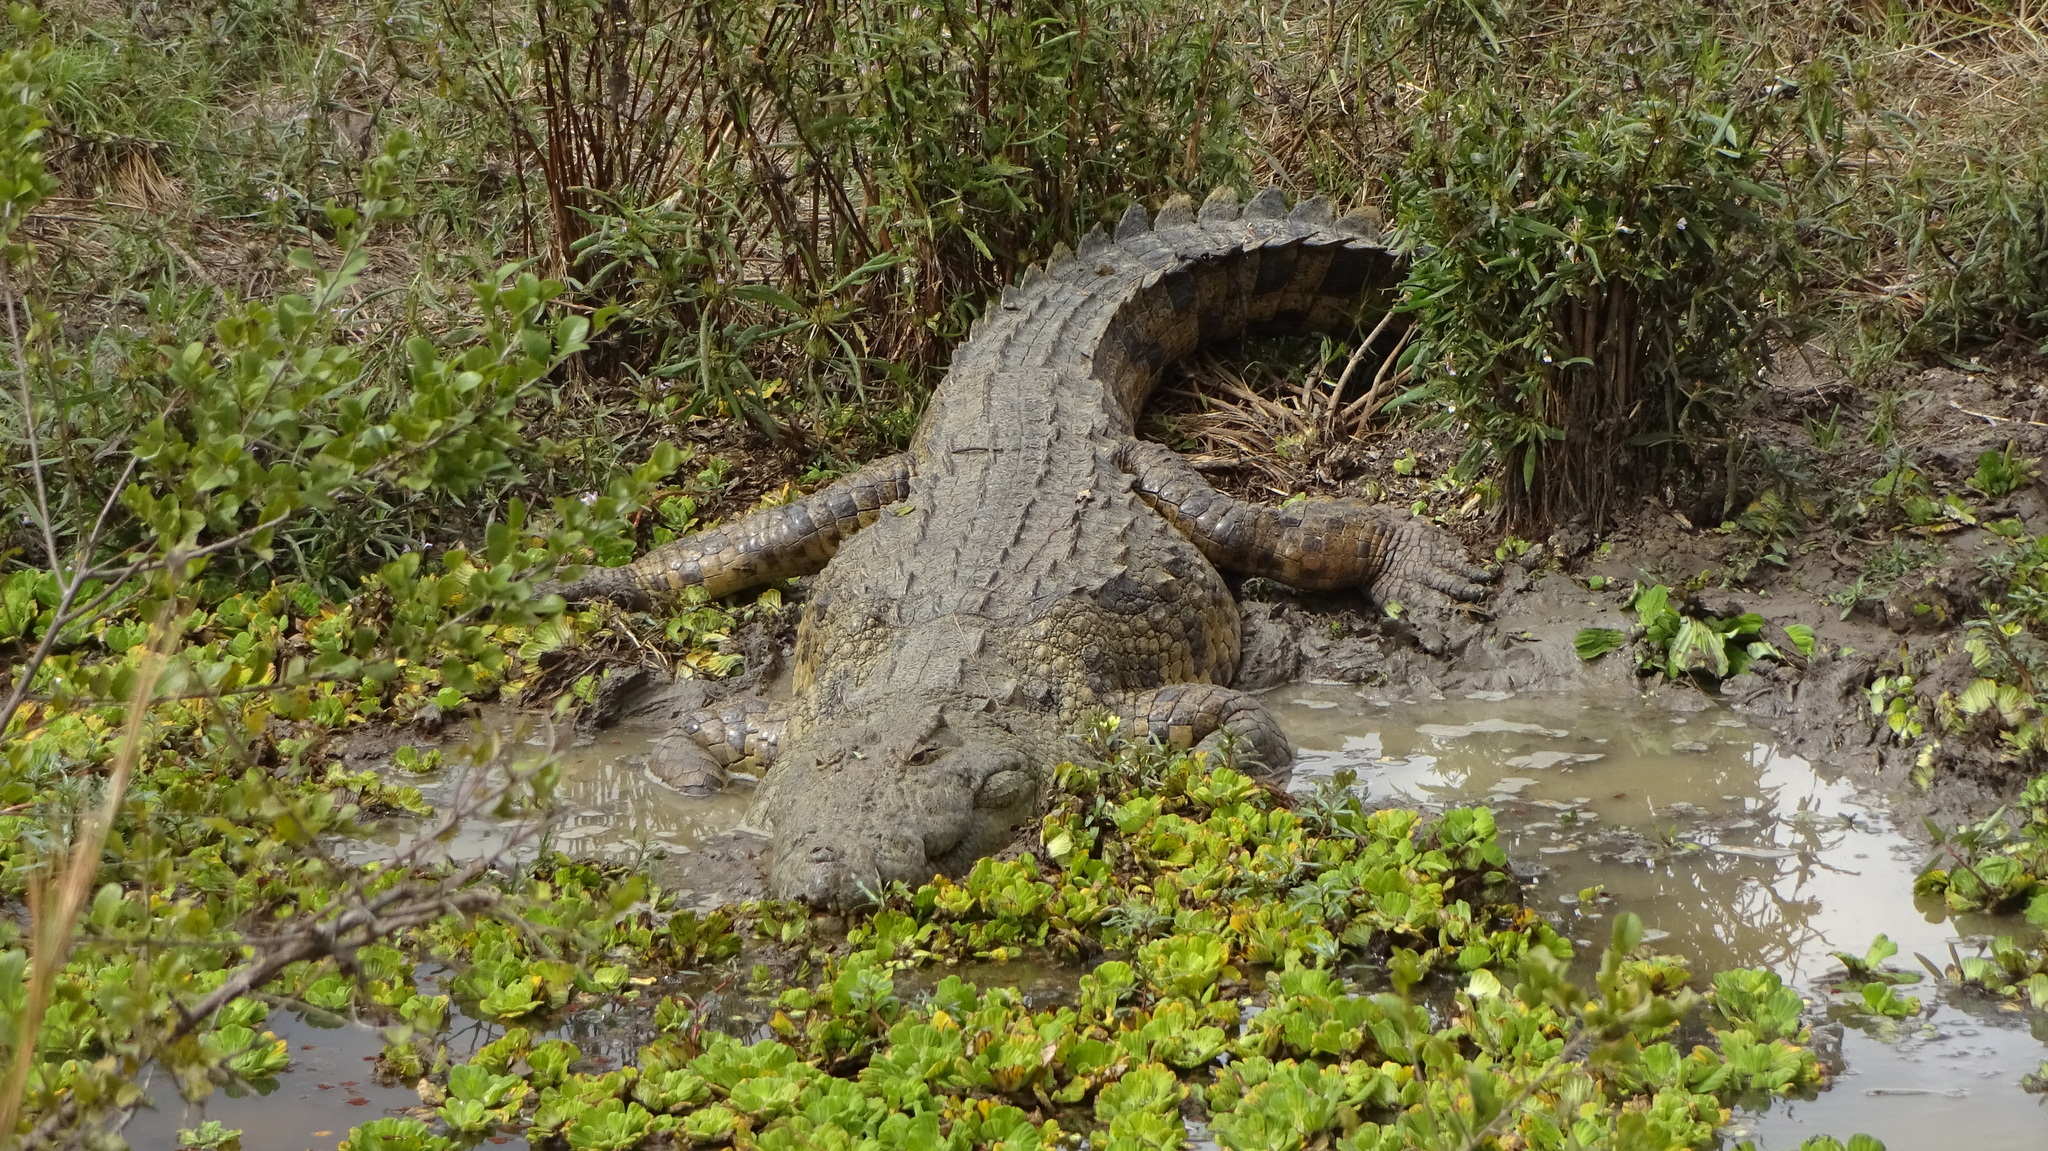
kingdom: Animalia
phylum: Chordata
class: Crocodylia
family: Crocodylidae
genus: Crocodylus
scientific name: Crocodylus niloticus
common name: Nile crocodile
